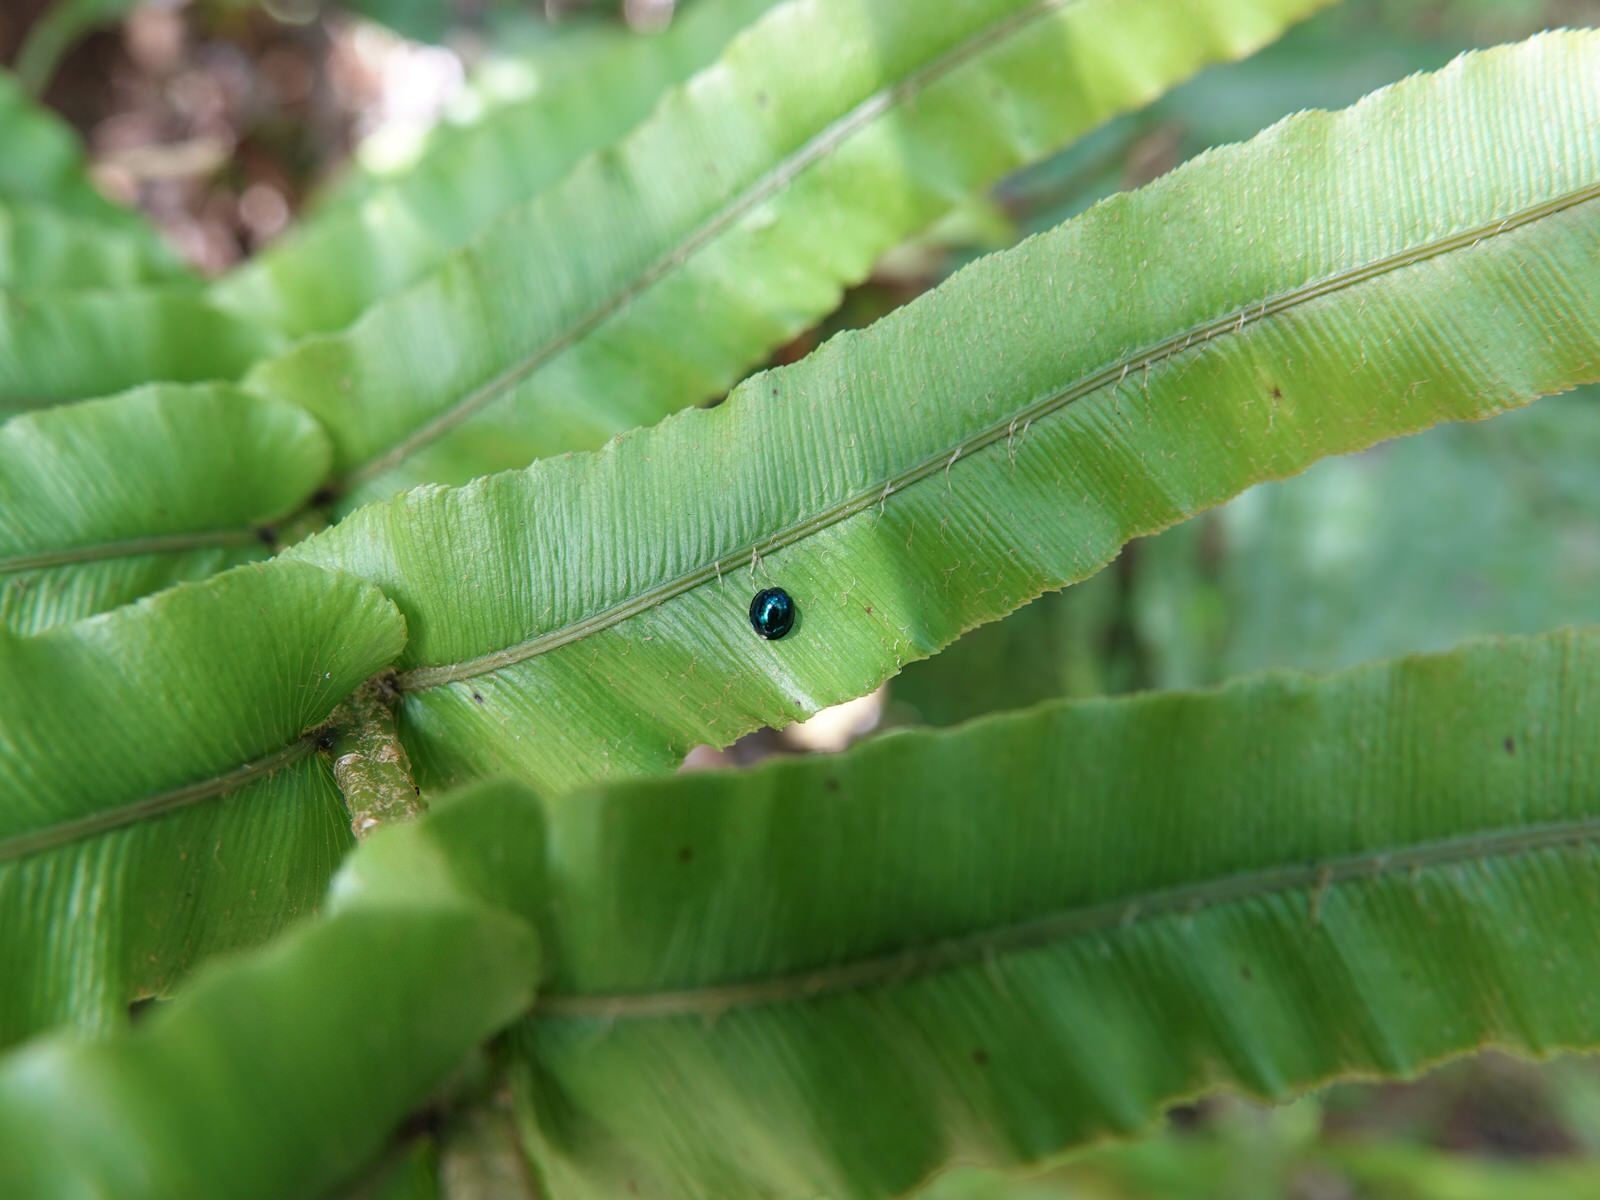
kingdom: Animalia
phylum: Arthropoda
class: Insecta
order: Coleoptera
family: Coccinellidae
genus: Halmus
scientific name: Halmus chalybeus
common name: Steel blue ladybird beetle
